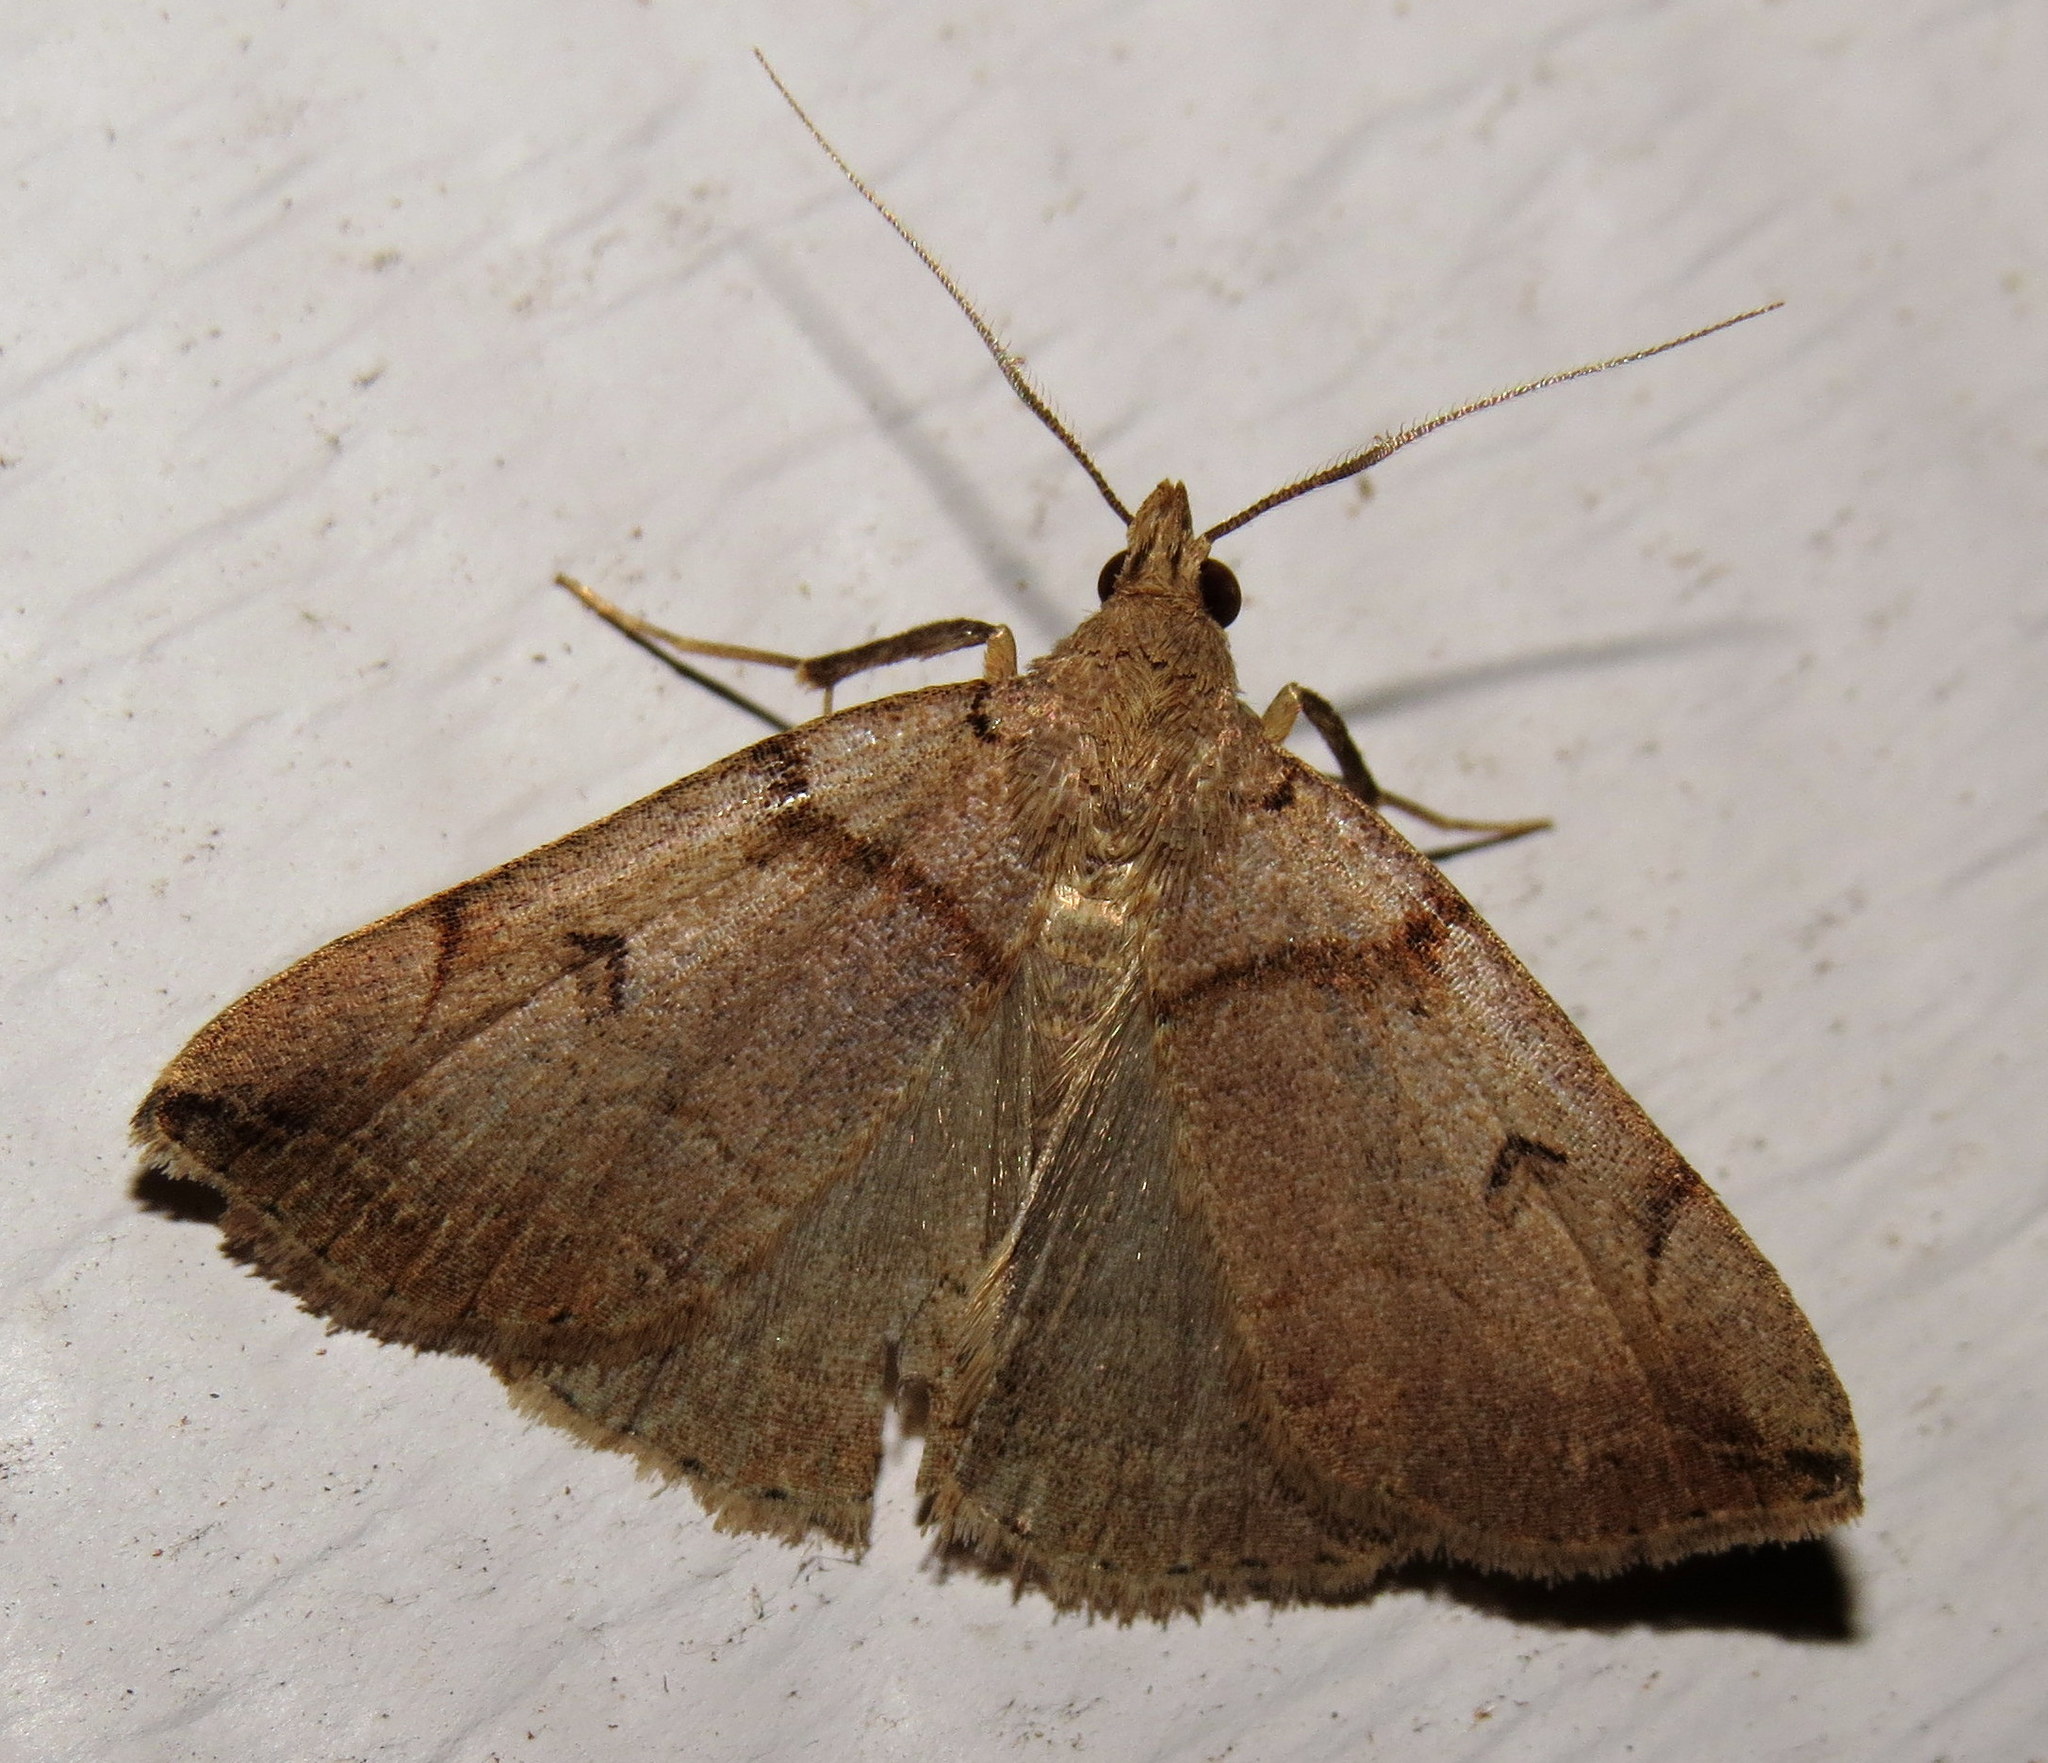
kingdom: Animalia
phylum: Arthropoda
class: Insecta
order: Lepidoptera
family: Erebidae
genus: Zanclognatha
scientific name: Zanclognatha laevigata
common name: Variable fan-foot
